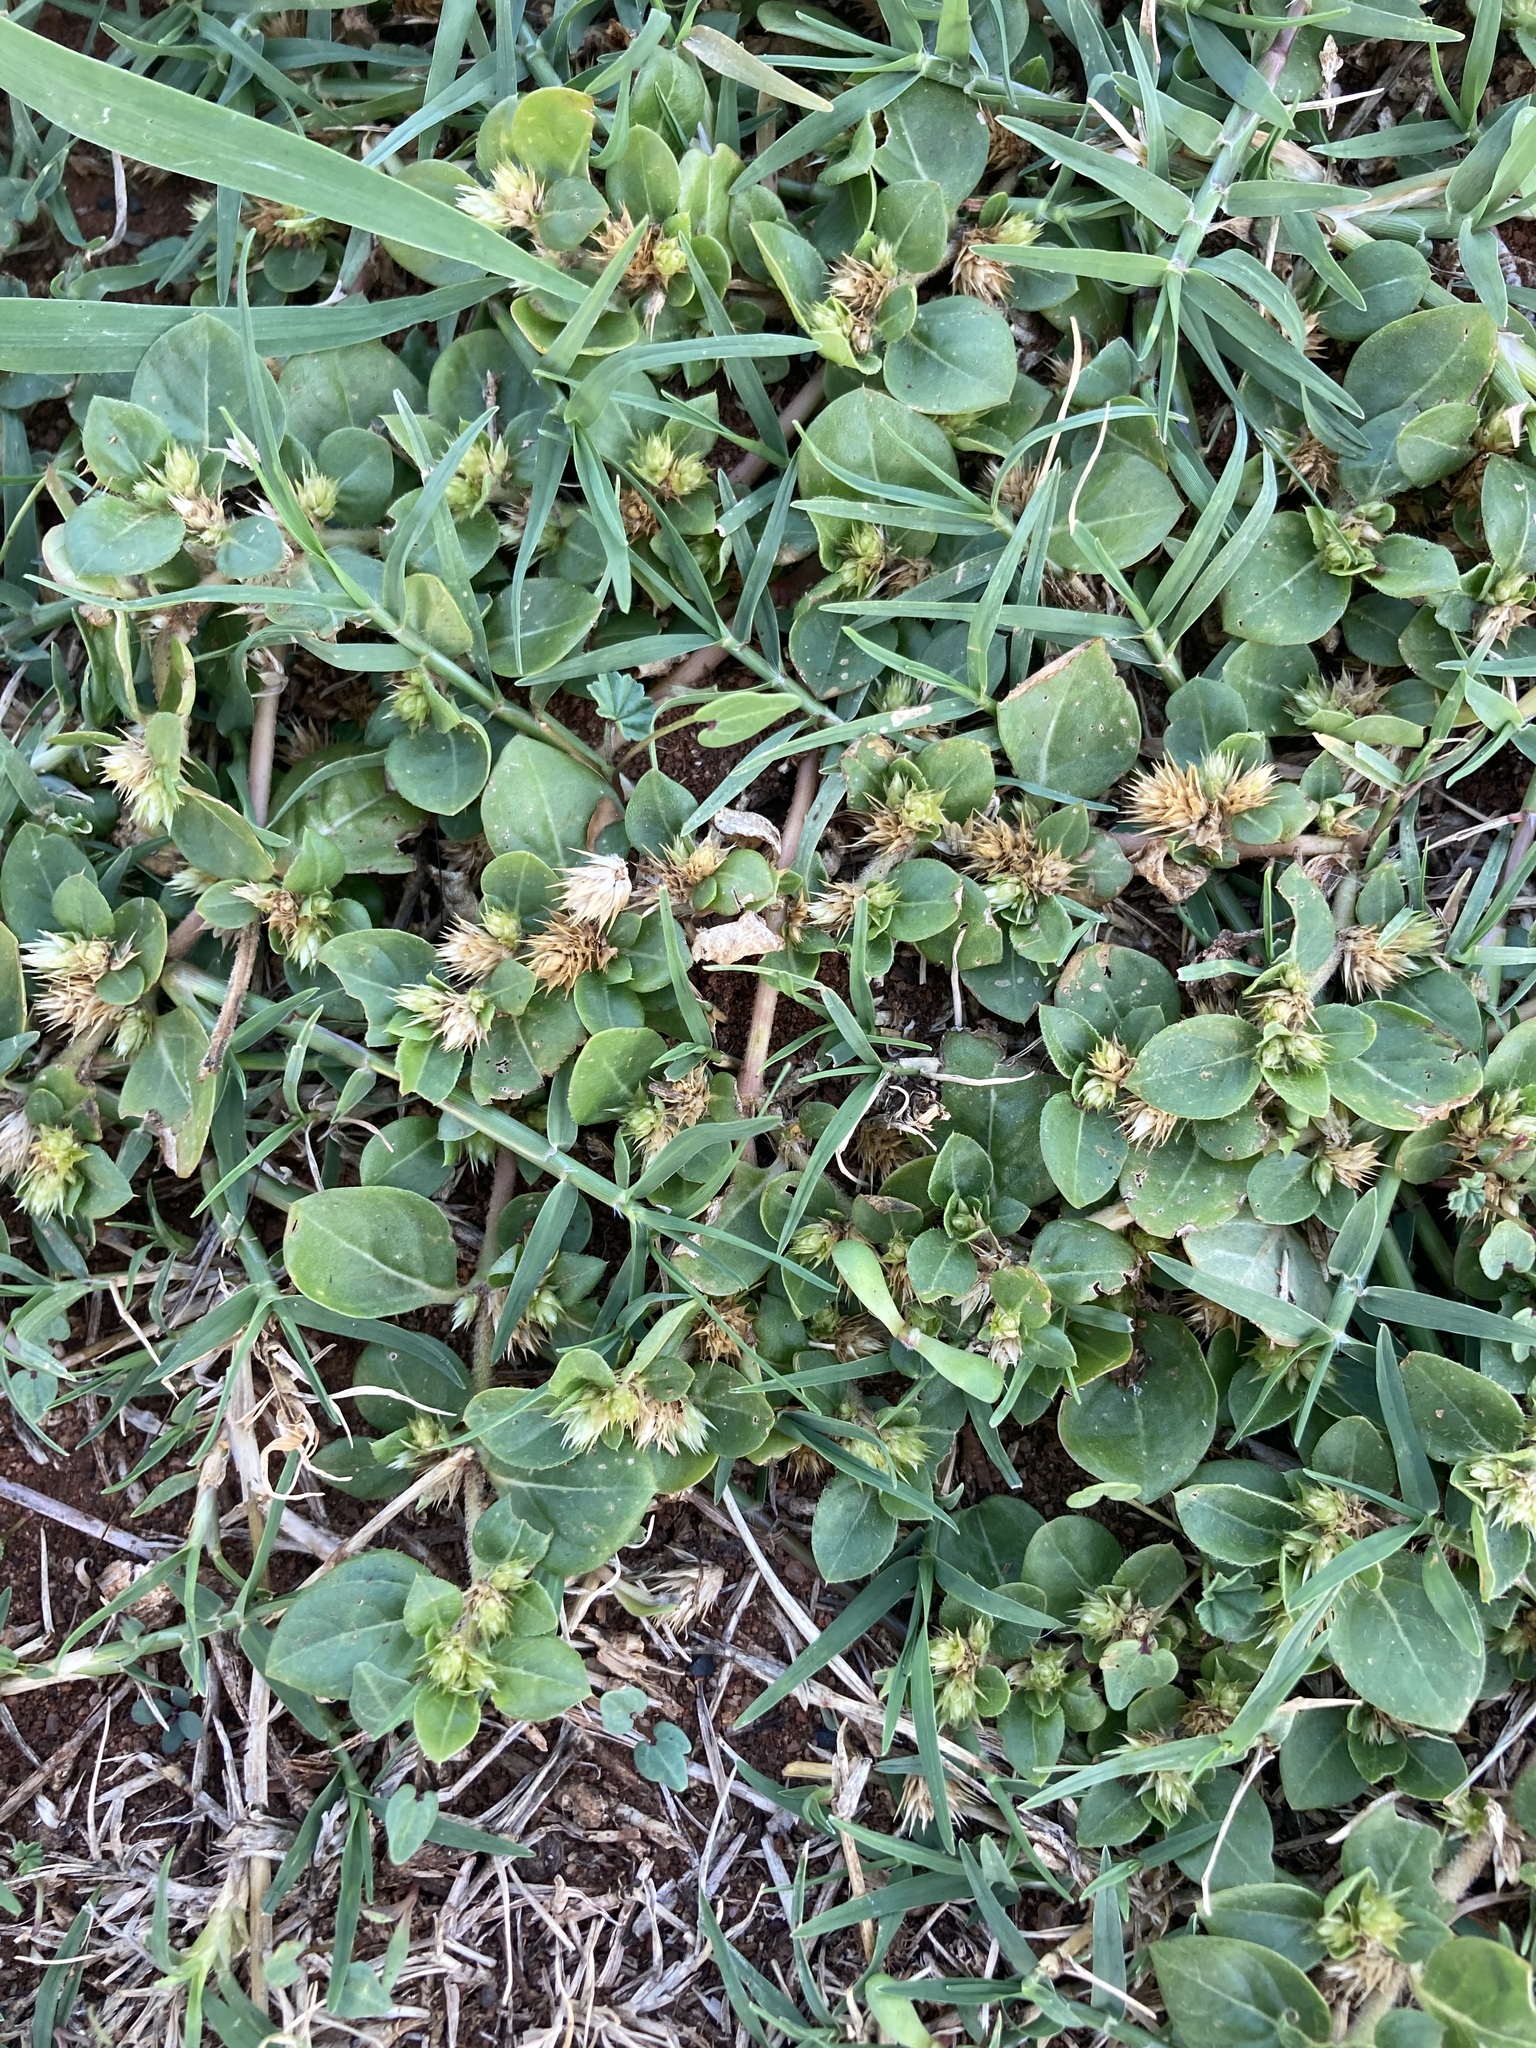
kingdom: Plantae
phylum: Tracheophyta
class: Magnoliopsida
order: Caryophyllales
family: Amaranthaceae
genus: Alternanthera
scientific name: Alternanthera pungens
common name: Khakiweed
